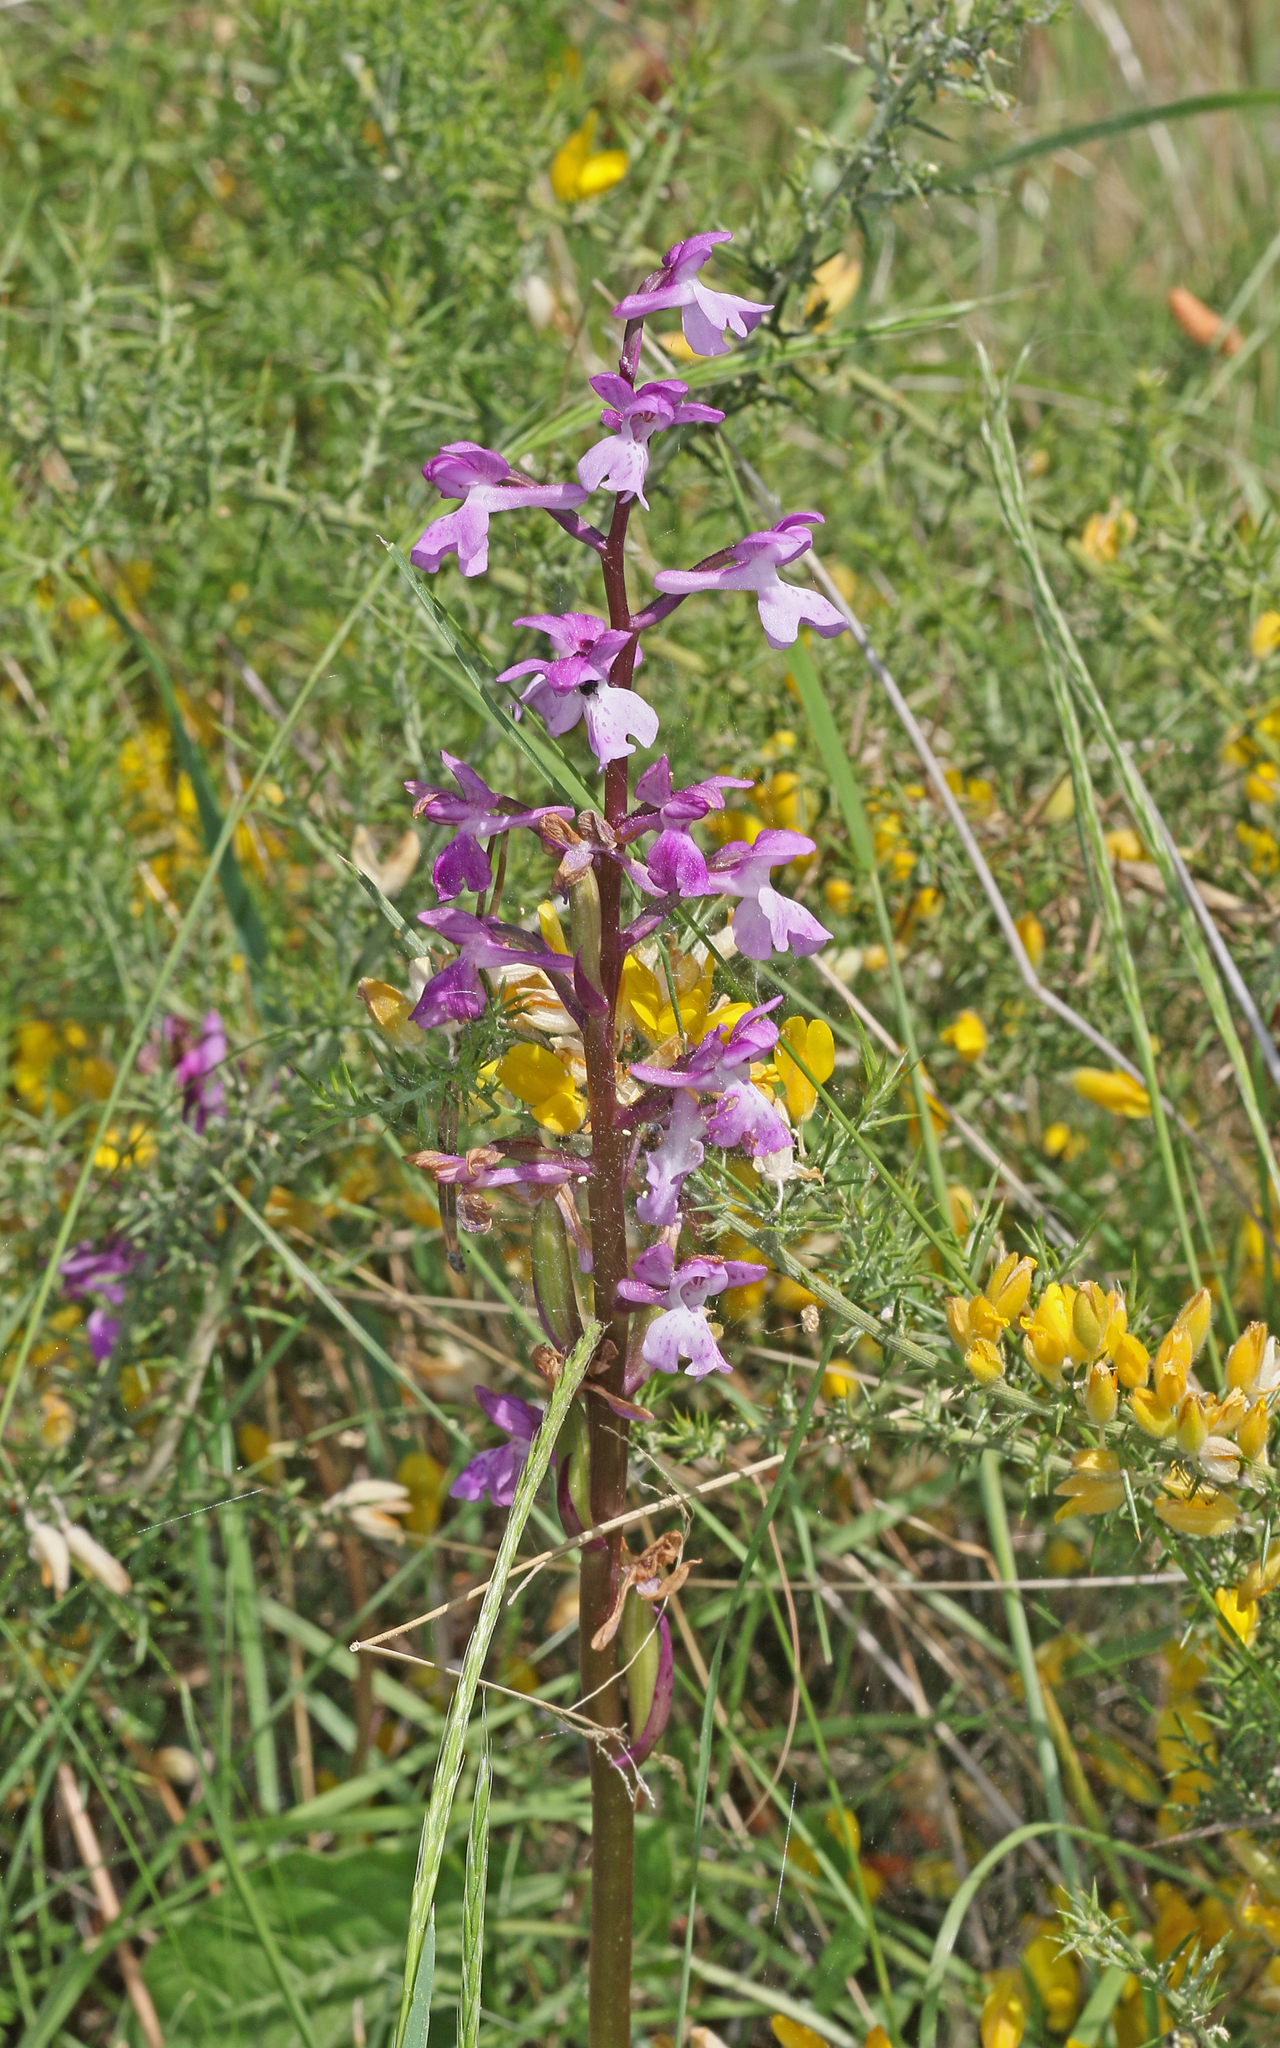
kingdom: Plantae
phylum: Tracheophyta
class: Liliopsida
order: Asparagales
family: Orchidaceae
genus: Orchis
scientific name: Orchis mascula
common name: Early-purple orchid
